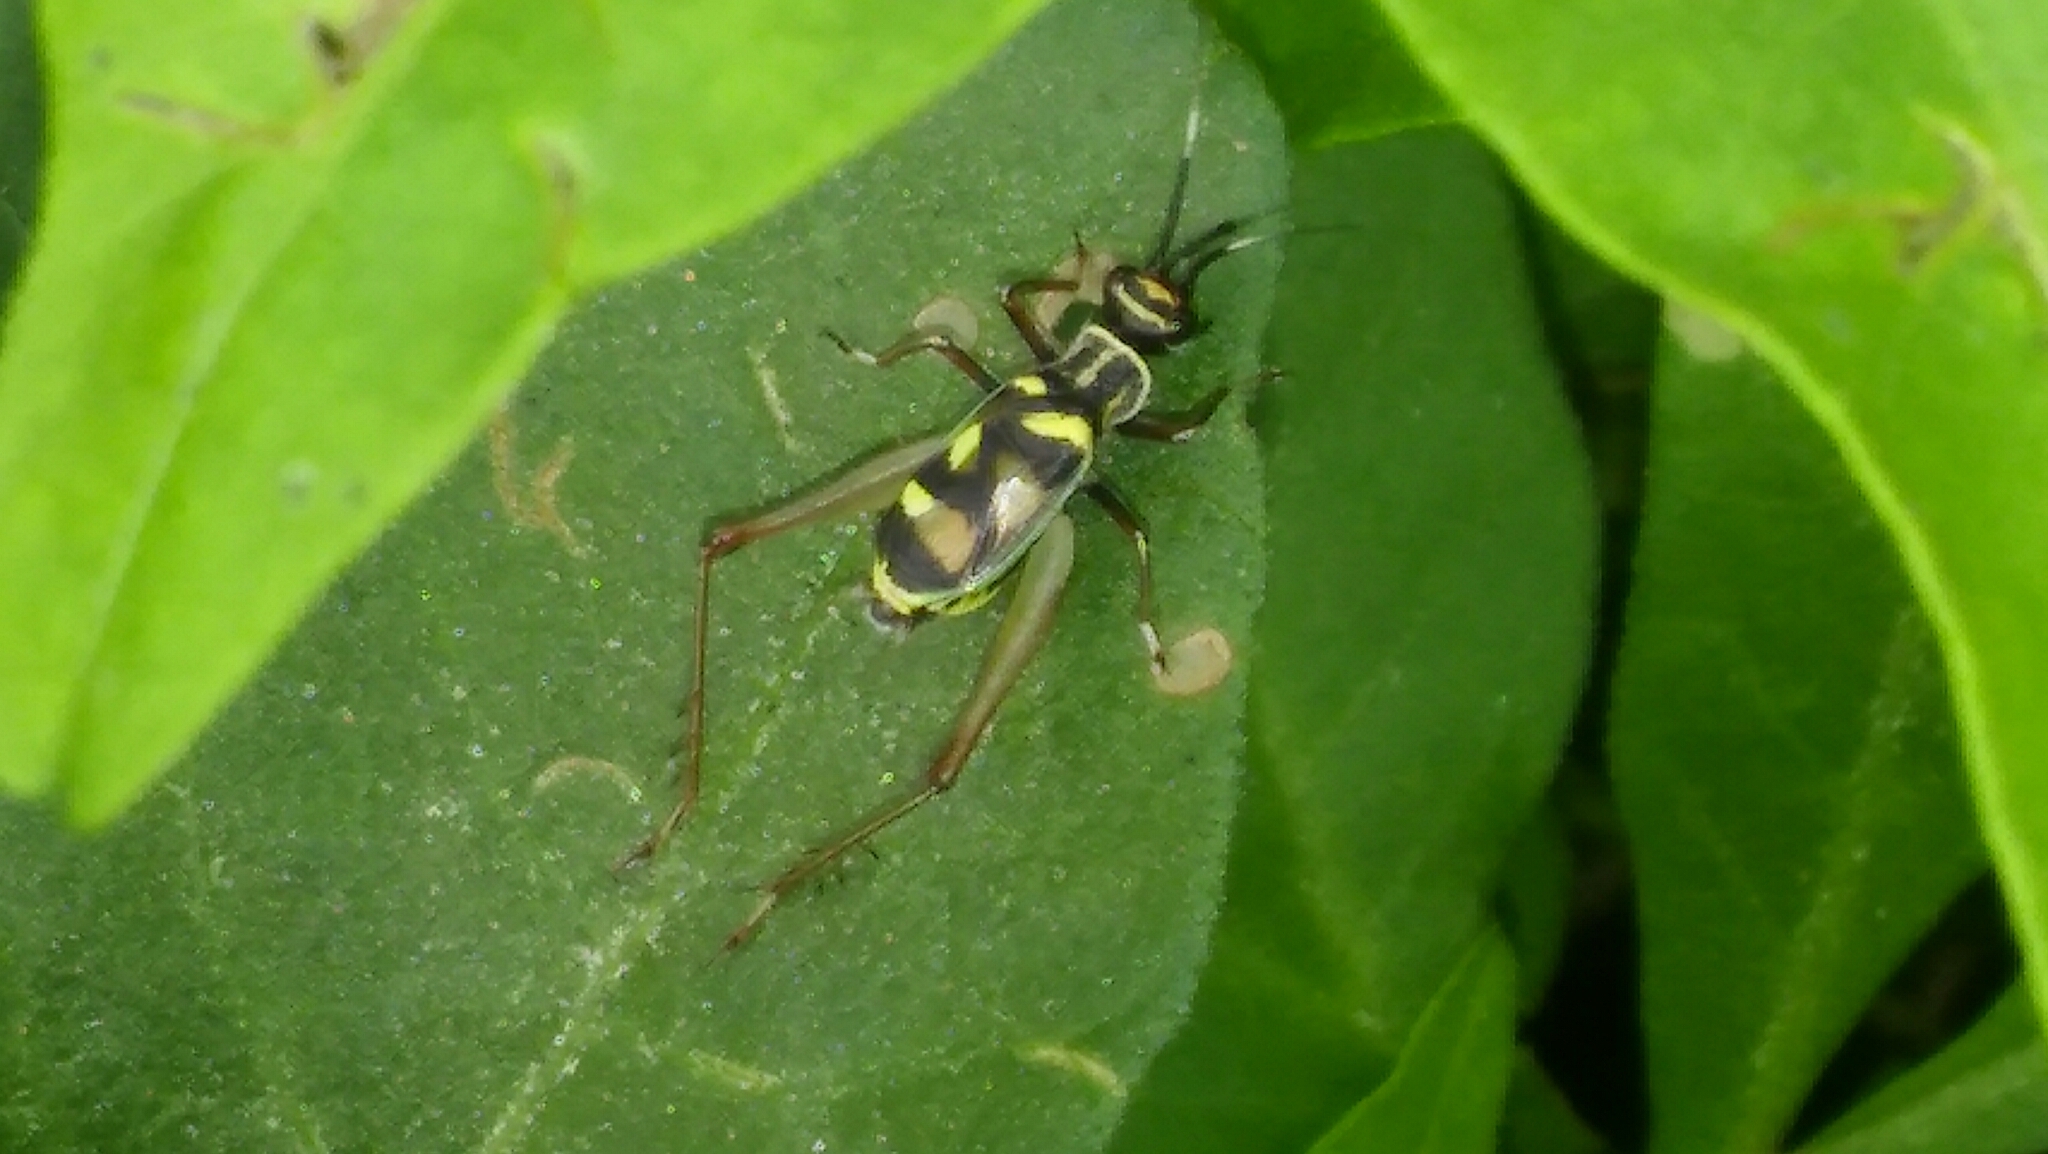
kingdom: Animalia
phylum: Arthropoda
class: Insecta
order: Orthoptera
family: Trigonidiidae
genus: Phylloscyrtus
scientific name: Phylloscyrtus amoenus
